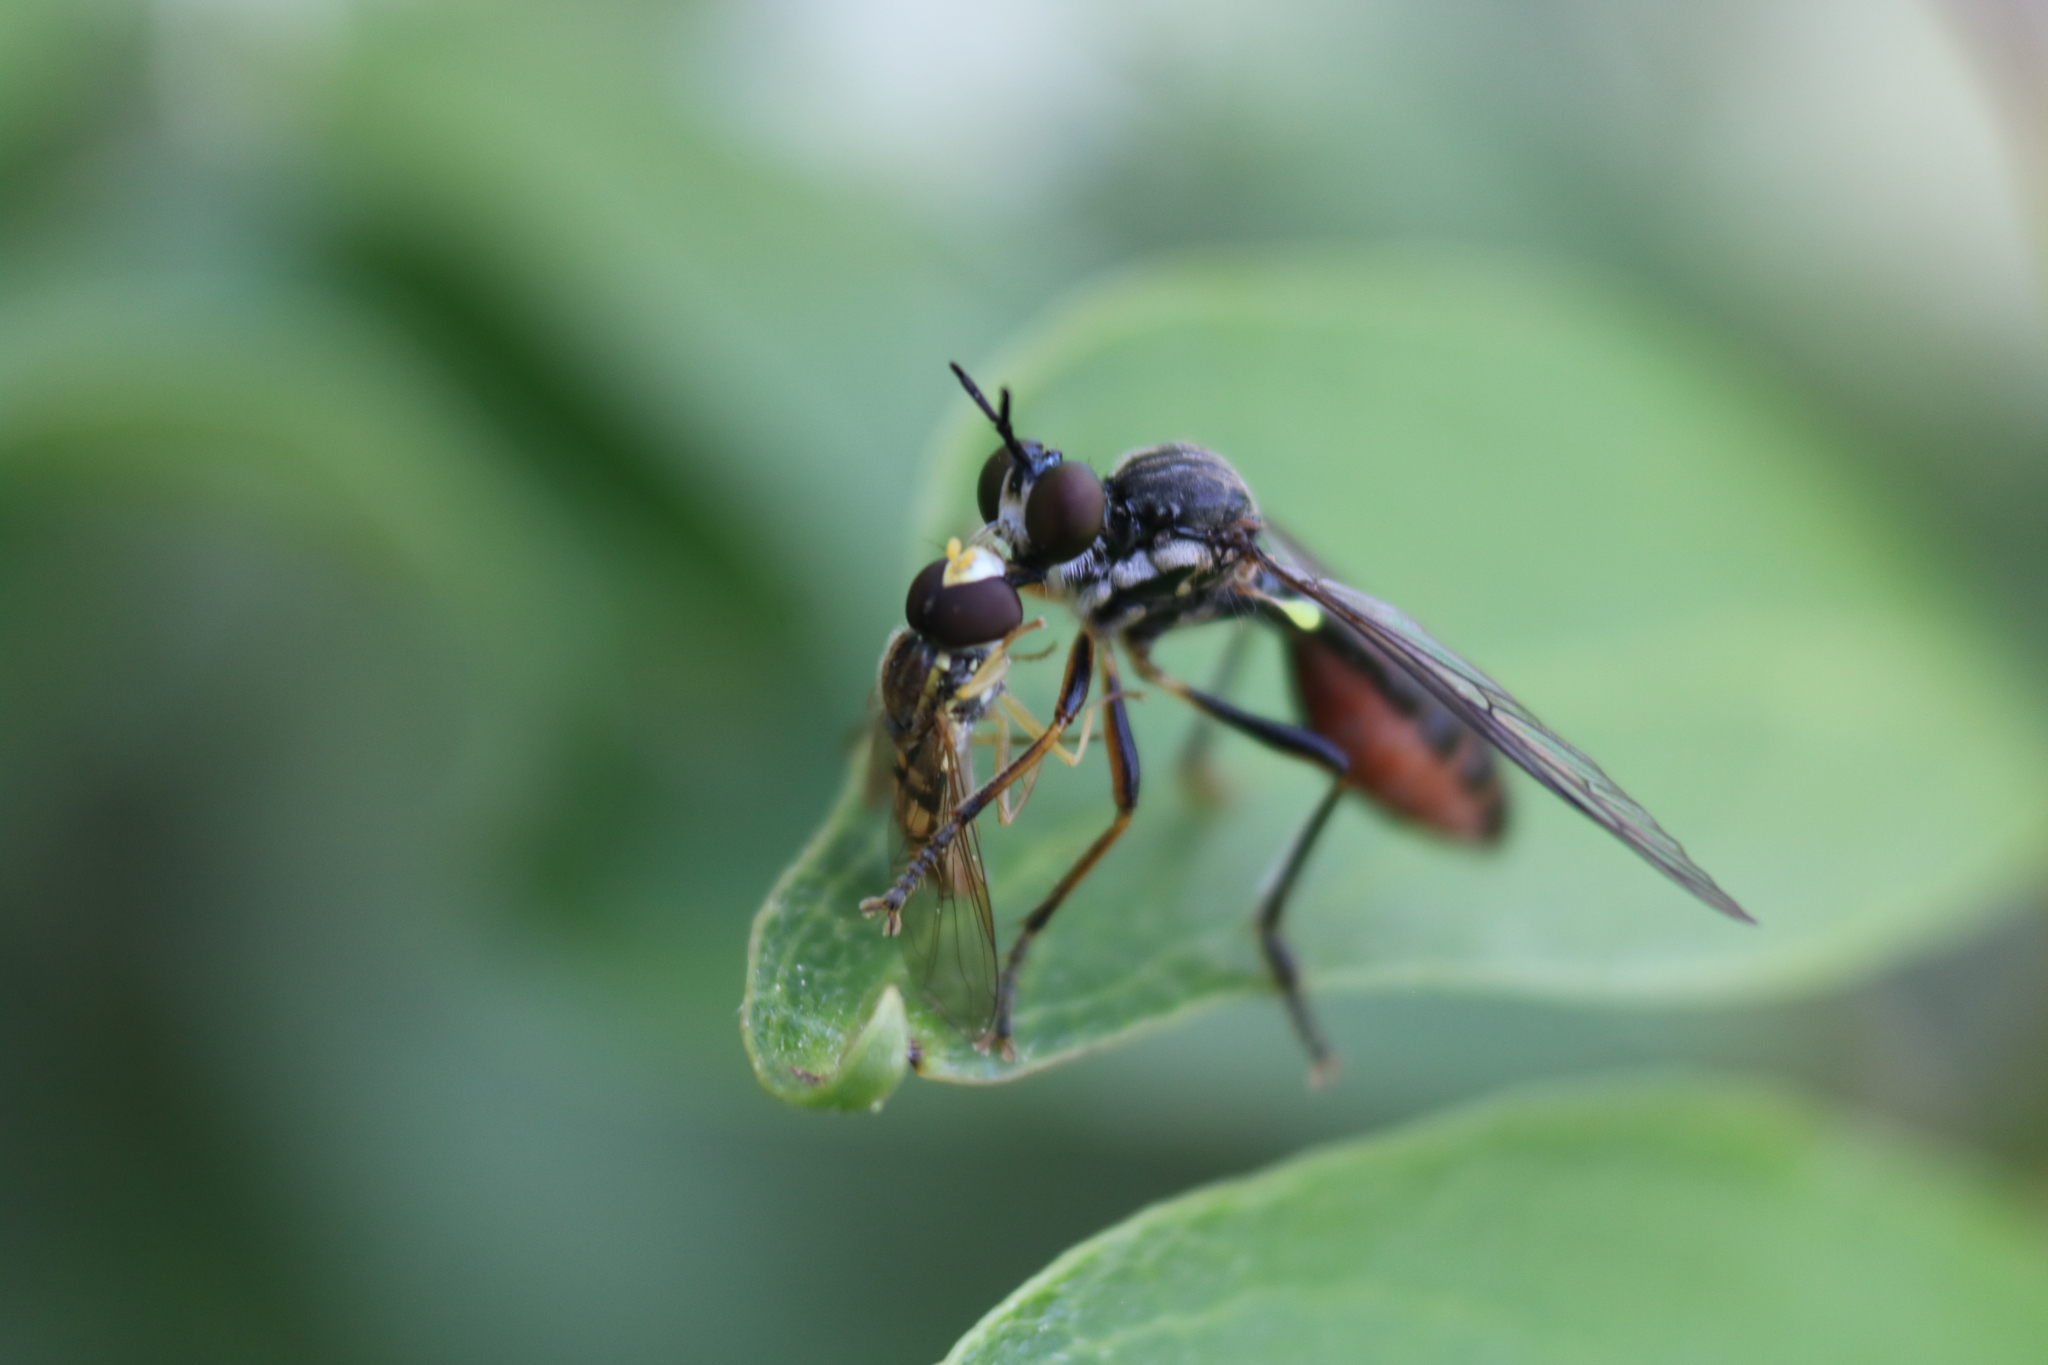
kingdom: Animalia
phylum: Arthropoda
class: Insecta
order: Diptera
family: Asilidae
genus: Dioctria
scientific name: Dioctria hyalipennis
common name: Stripe-legged robberfly
